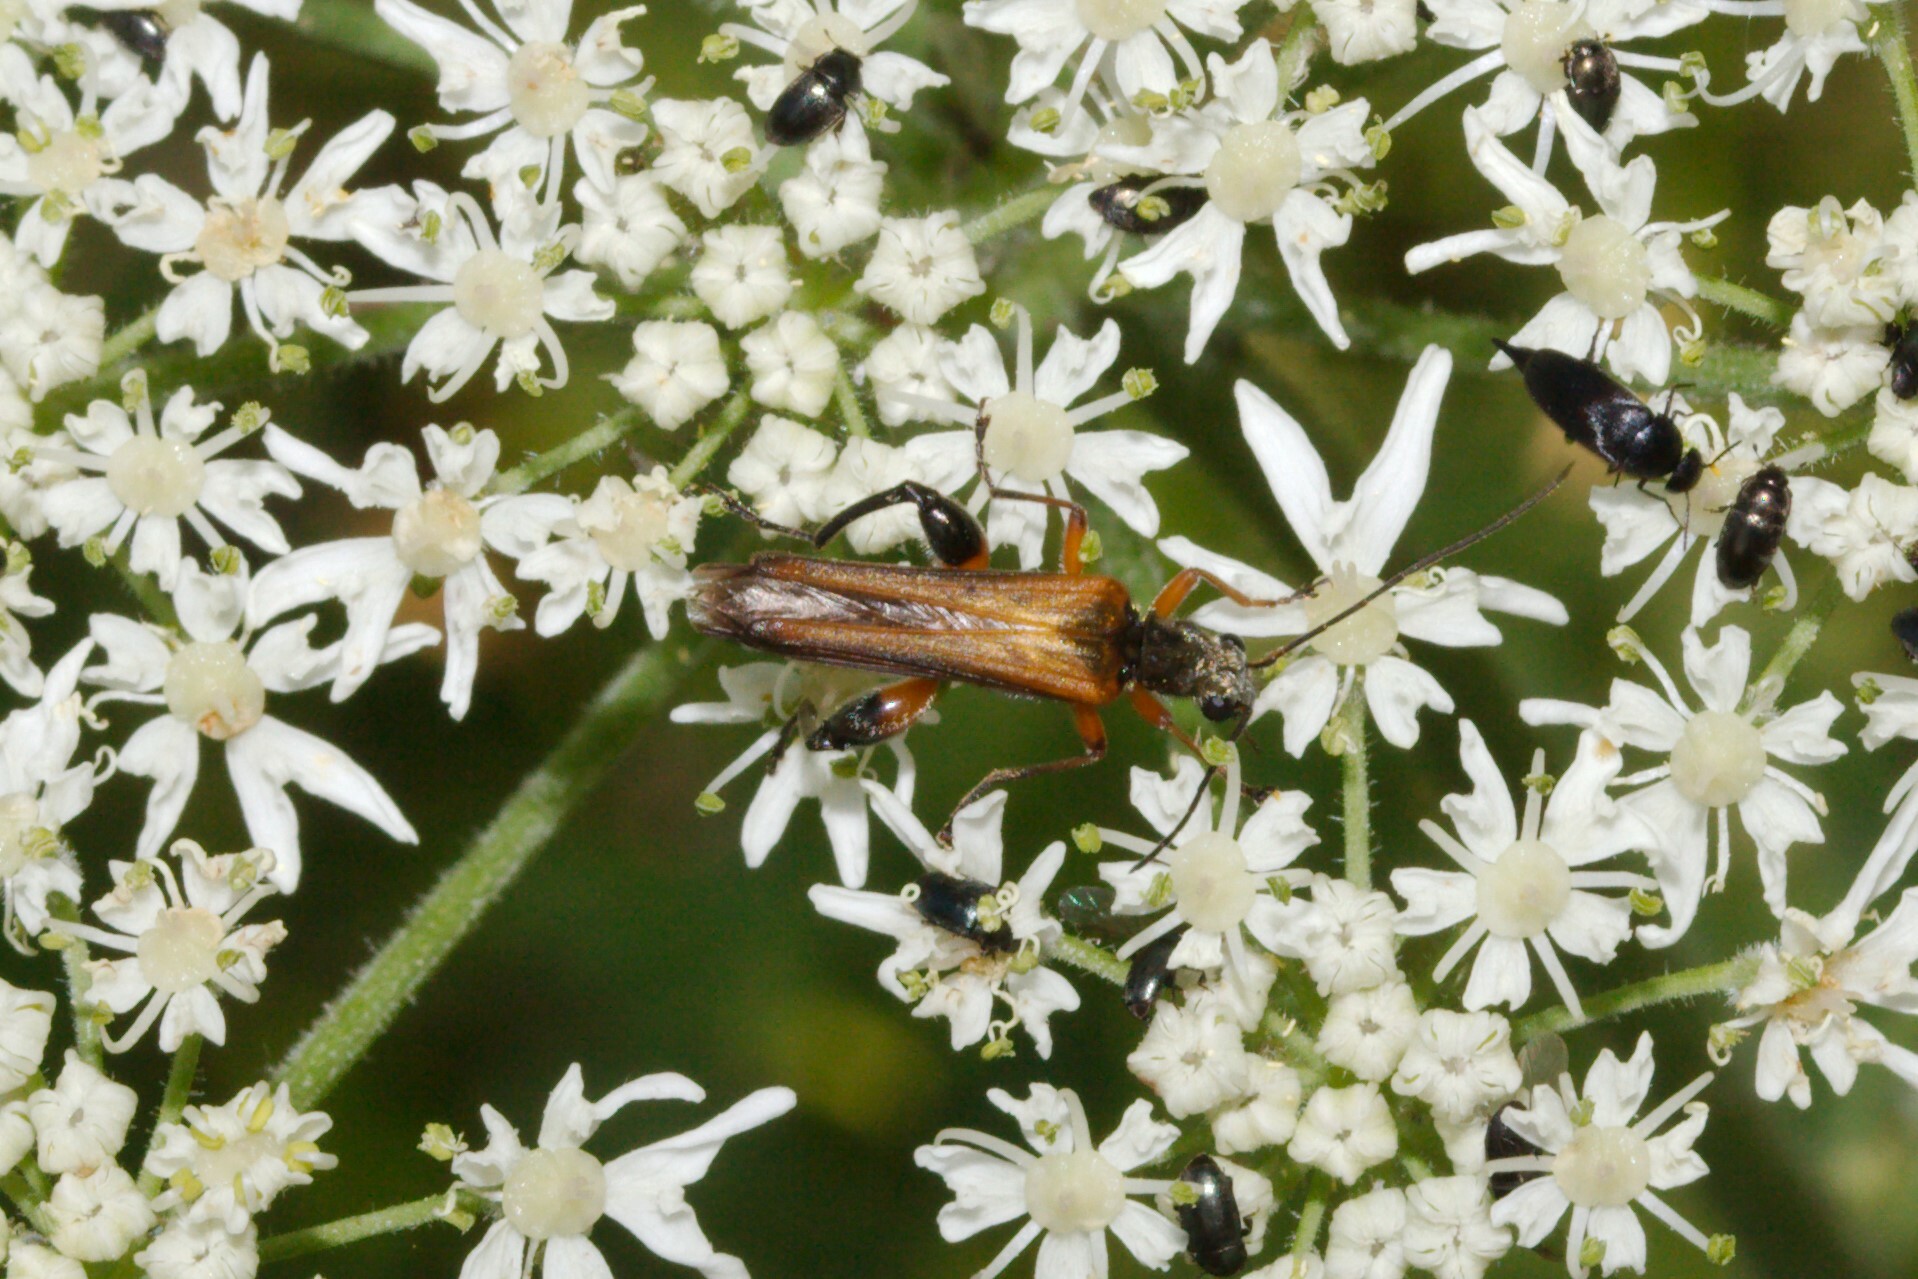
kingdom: Animalia
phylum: Arthropoda
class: Insecta
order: Coleoptera
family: Oedemeridae
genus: Oedemera
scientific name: Oedemera podagrariae
